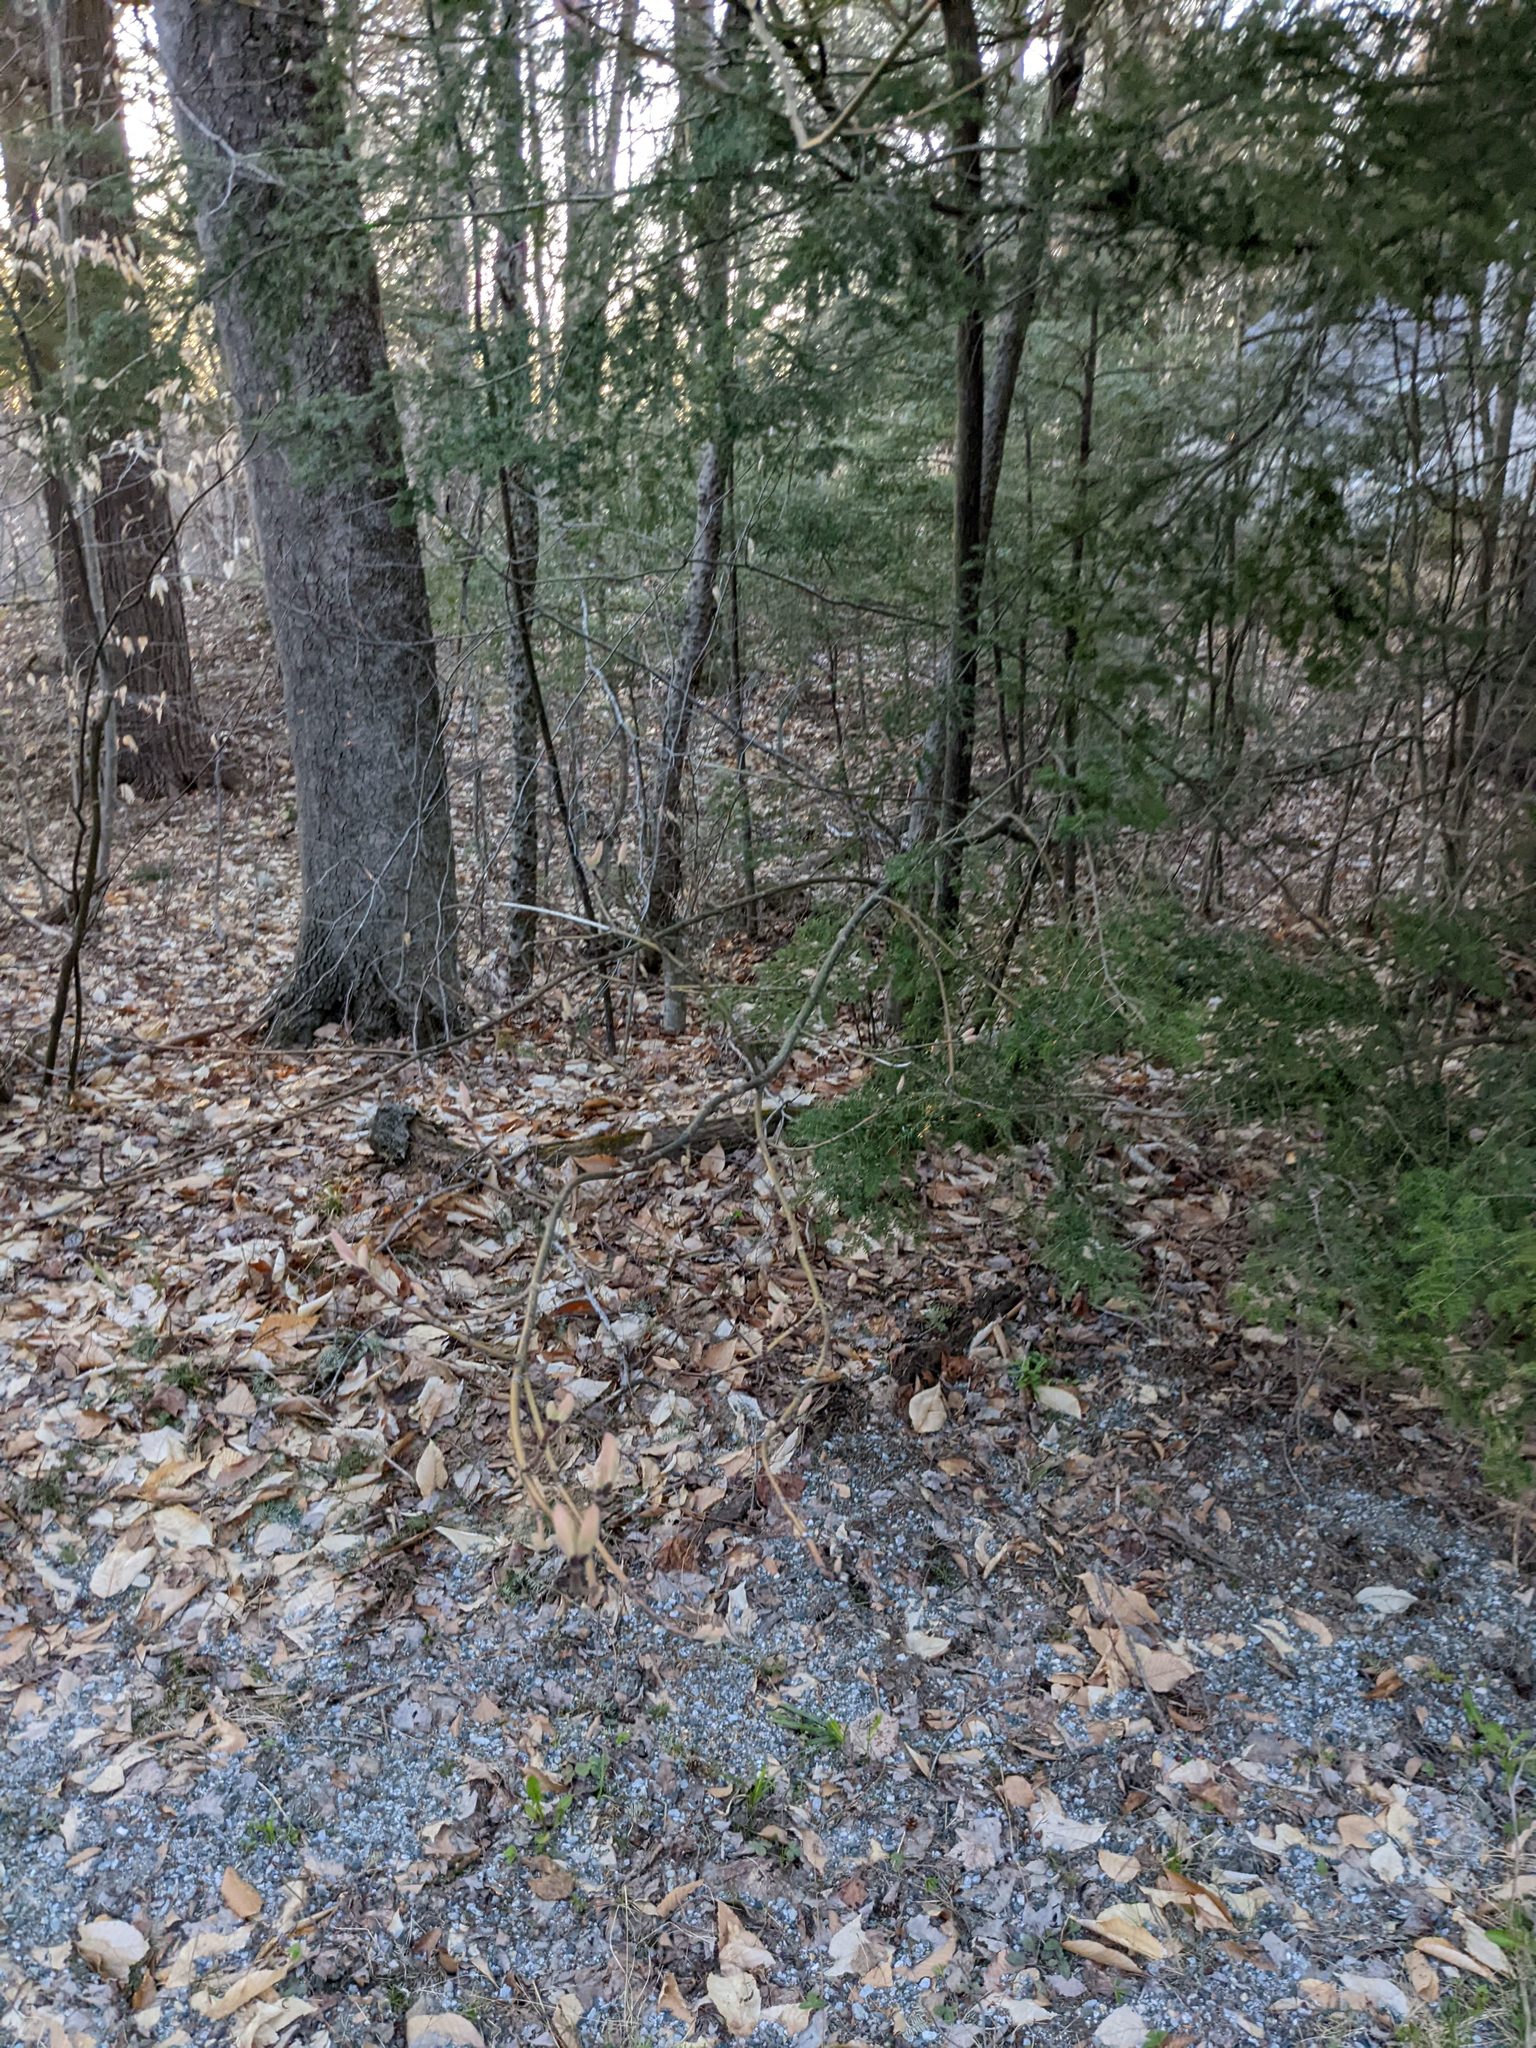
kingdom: Plantae
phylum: Tracheophyta
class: Magnoliopsida
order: Sapindales
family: Sapindaceae
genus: Acer
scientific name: Acer pensylvanicum
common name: Moosewood
